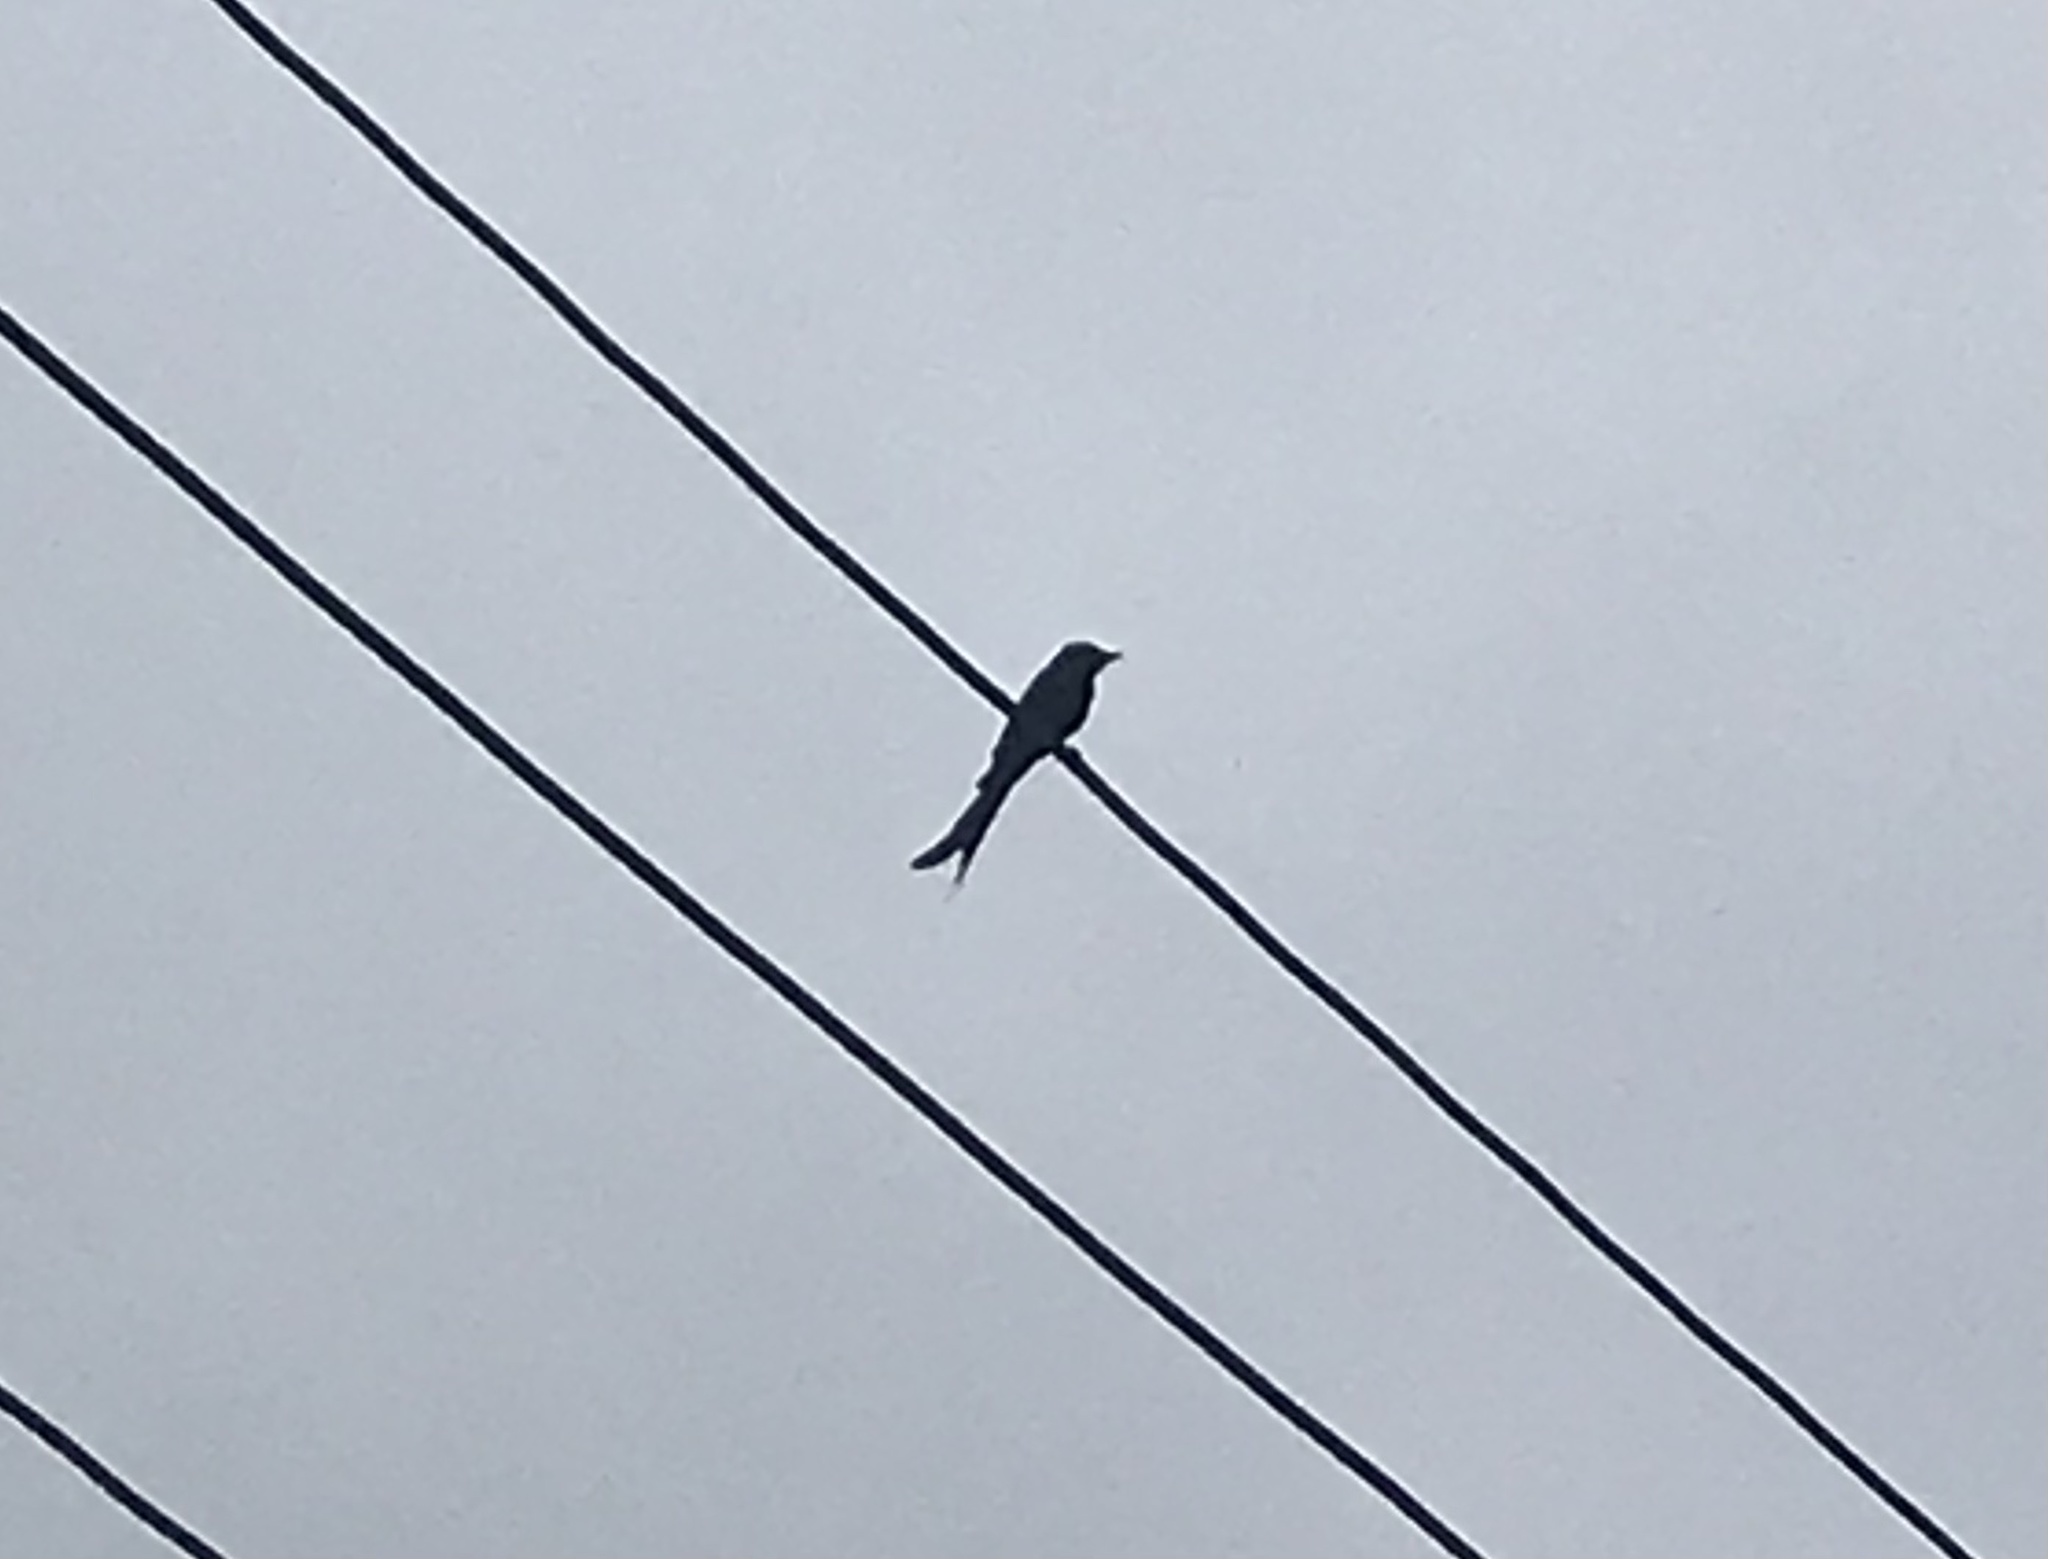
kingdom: Animalia
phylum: Chordata
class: Aves
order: Passeriformes
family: Dicruridae
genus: Dicrurus
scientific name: Dicrurus macrocercus
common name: Black drongo
